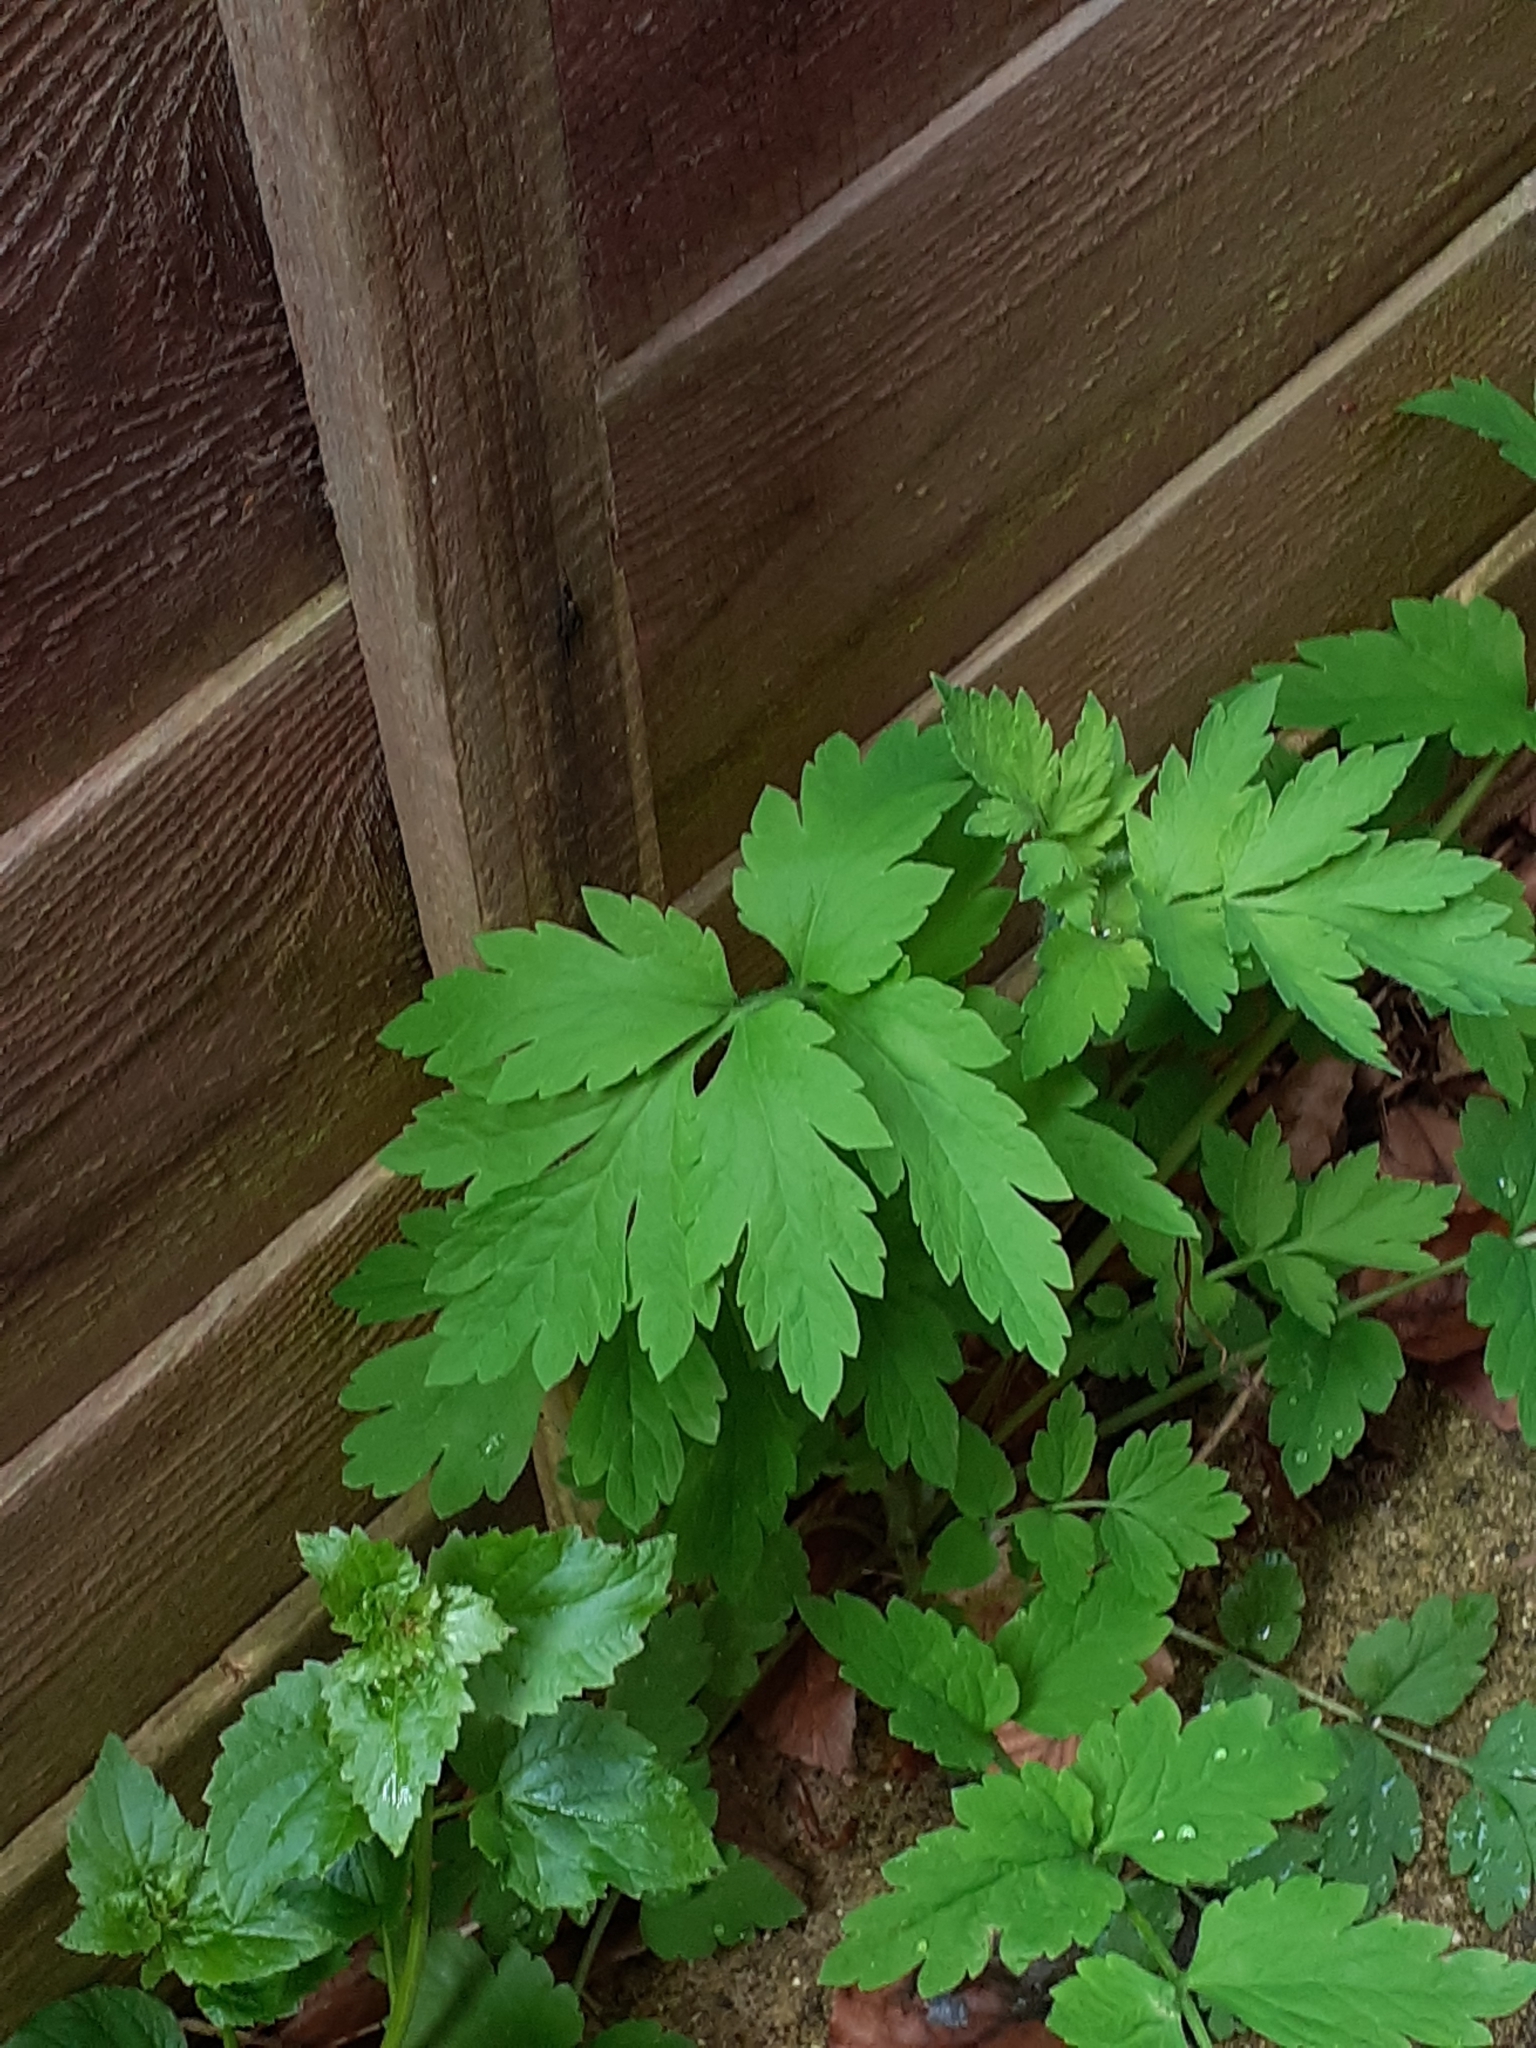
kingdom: Plantae
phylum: Tracheophyta
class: Magnoliopsida
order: Ranunculales
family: Papaveraceae
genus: Papaver
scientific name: Papaver cambricum
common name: Poppy
